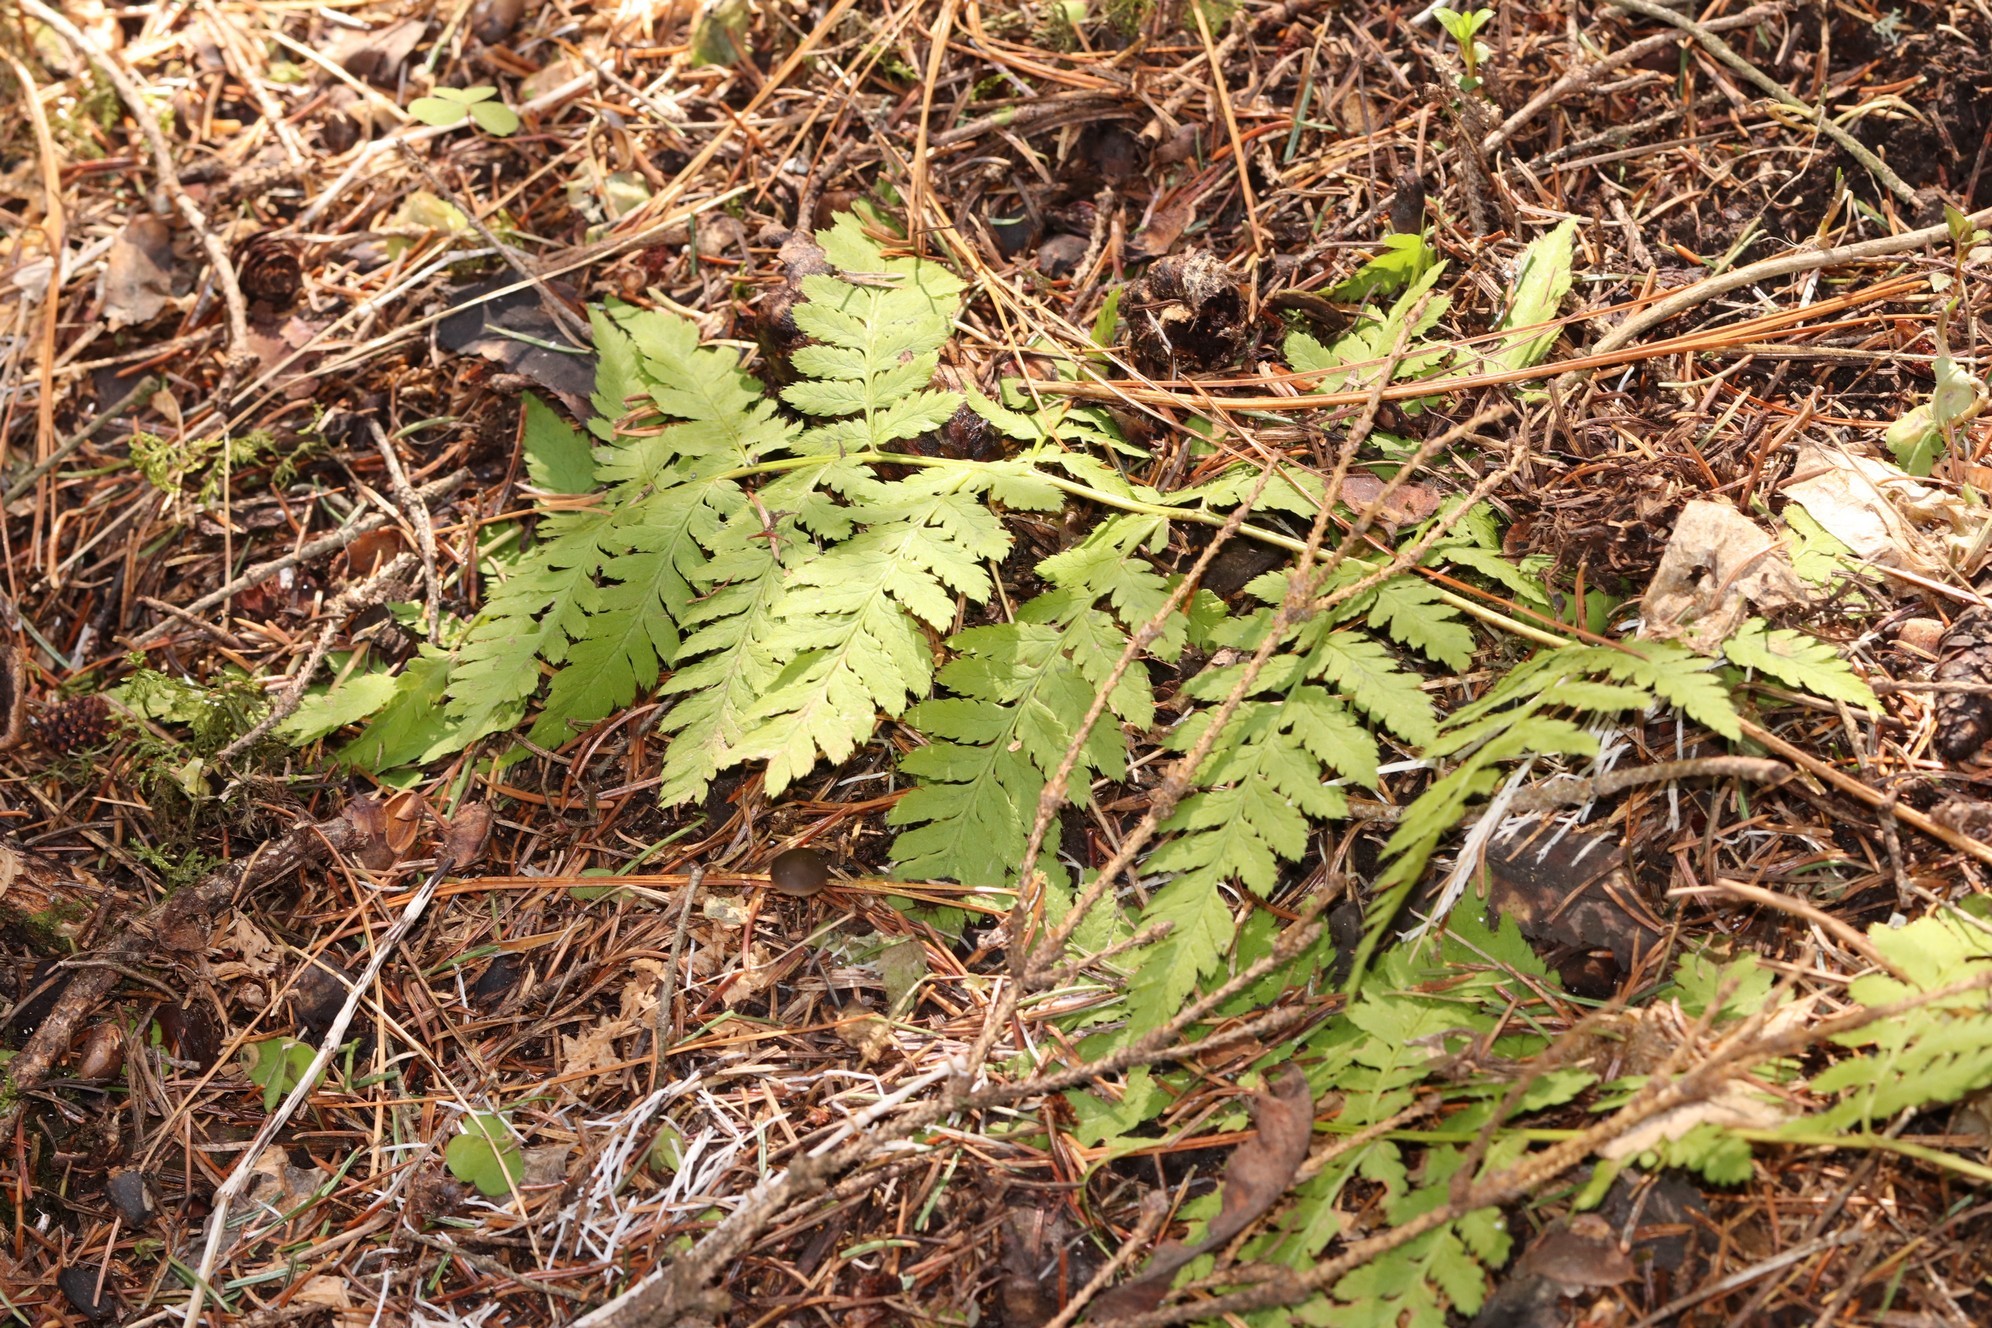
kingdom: Plantae
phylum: Tracheophyta
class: Polypodiopsida
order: Polypodiales
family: Dryopteridaceae
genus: Dryopteris
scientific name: Dryopteris carthusiana
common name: Narrow buckler-fern
